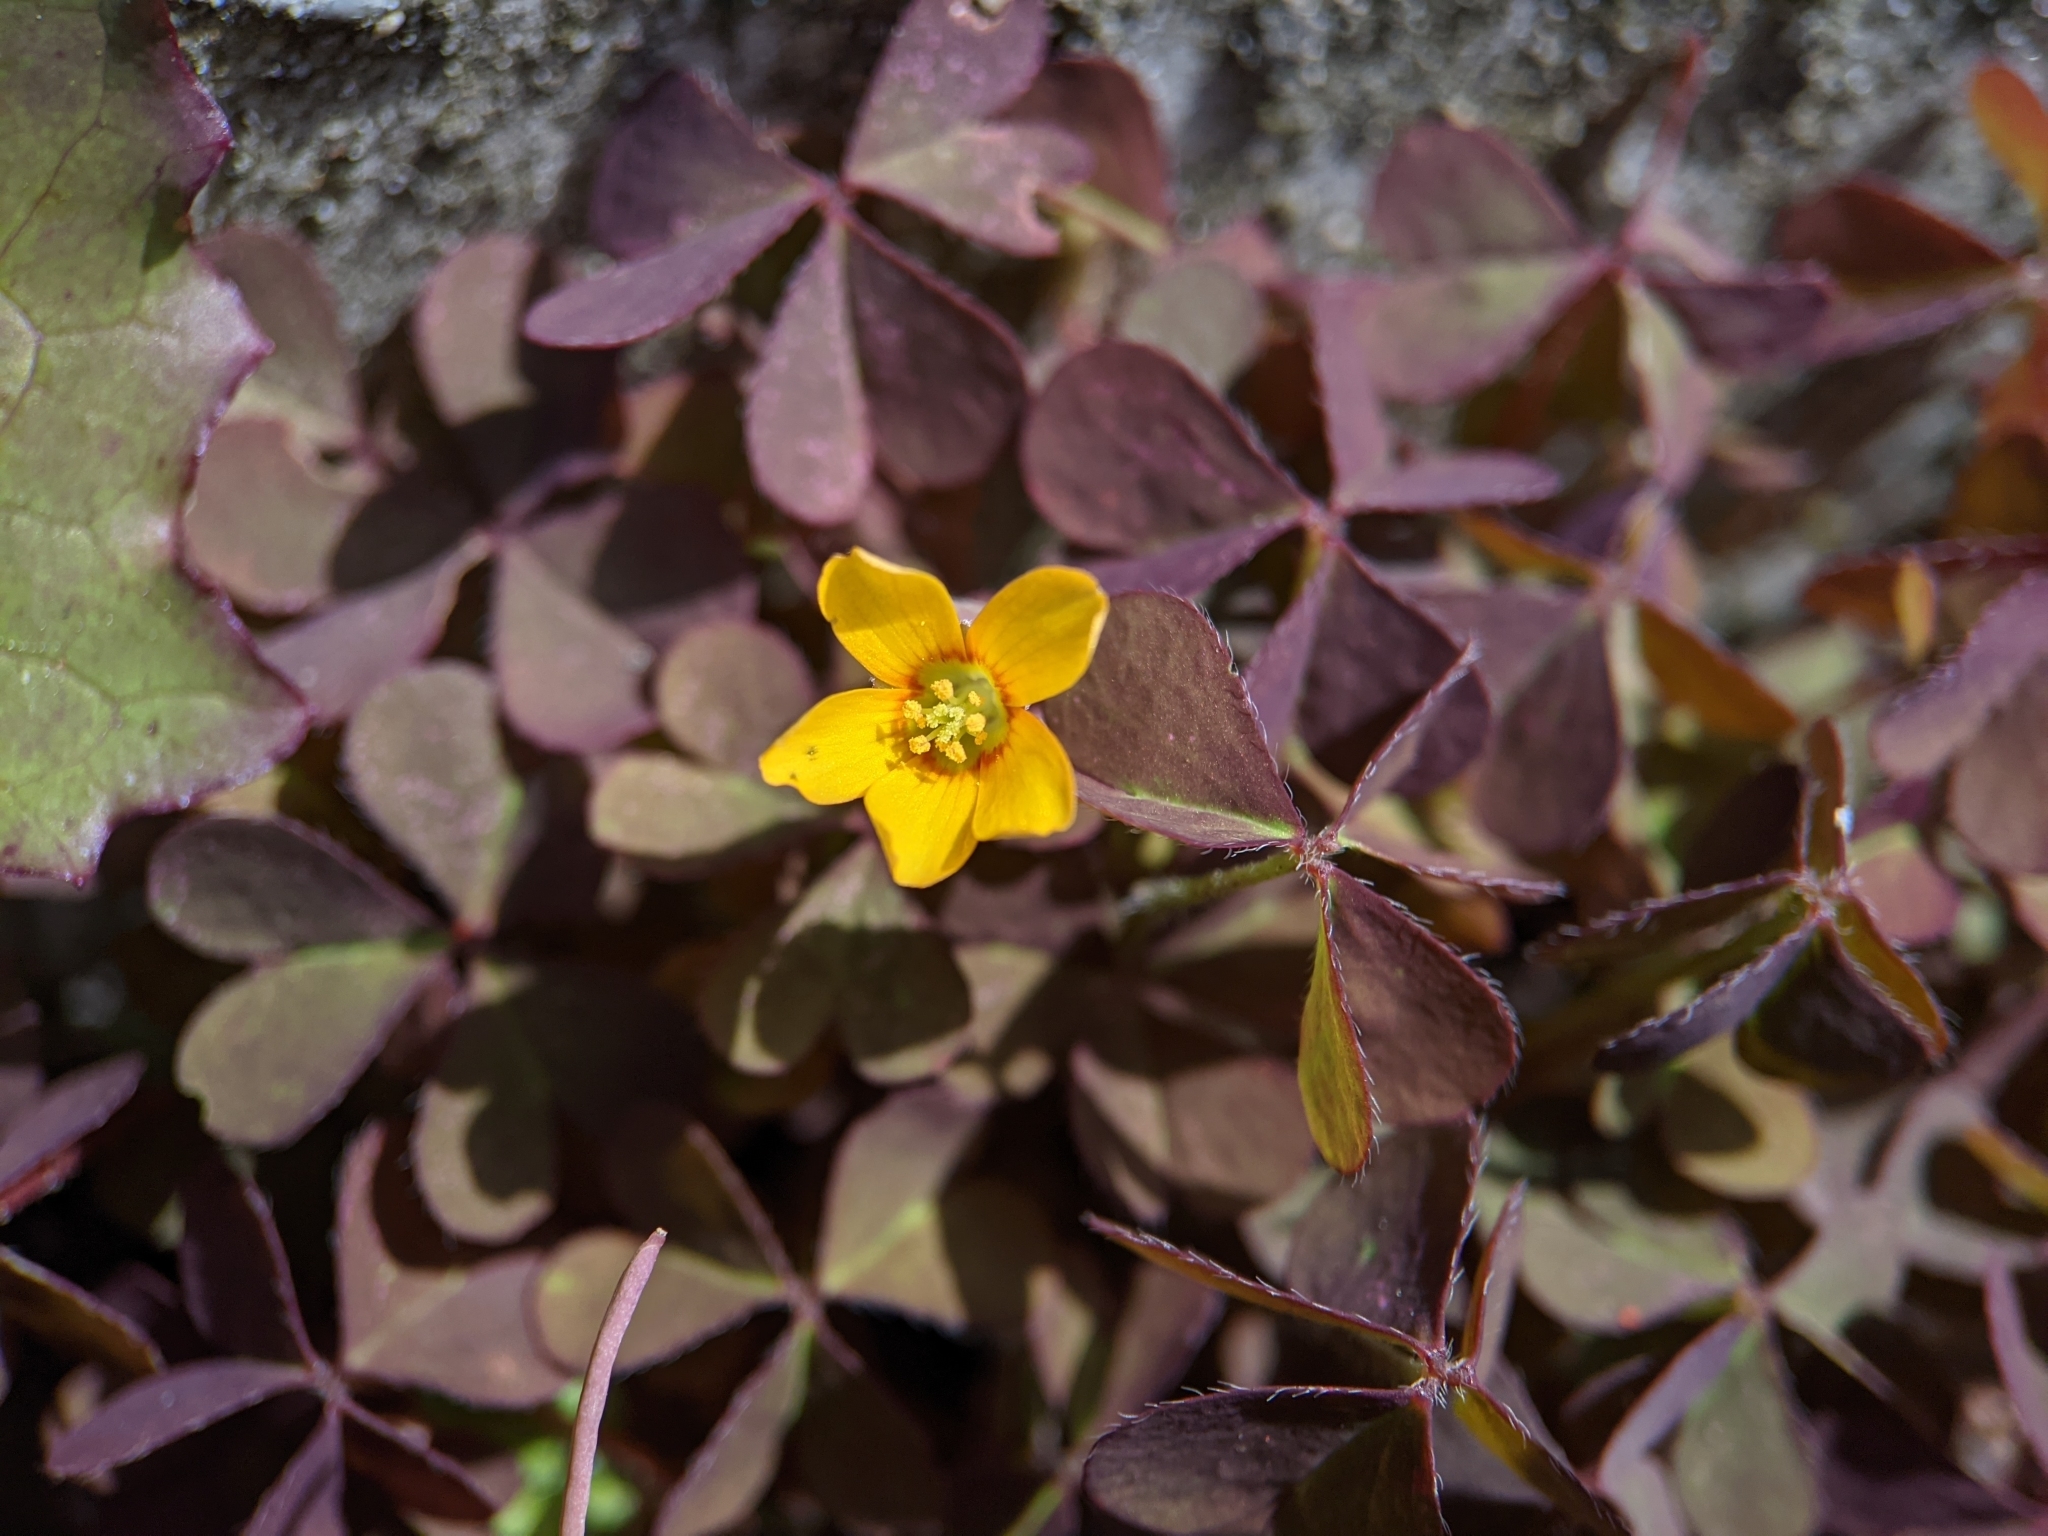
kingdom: Plantae
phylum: Tracheophyta
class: Magnoliopsida
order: Oxalidales
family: Oxalidaceae
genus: Oxalis
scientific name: Oxalis corniculata
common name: Procumbent yellow-sorrel
